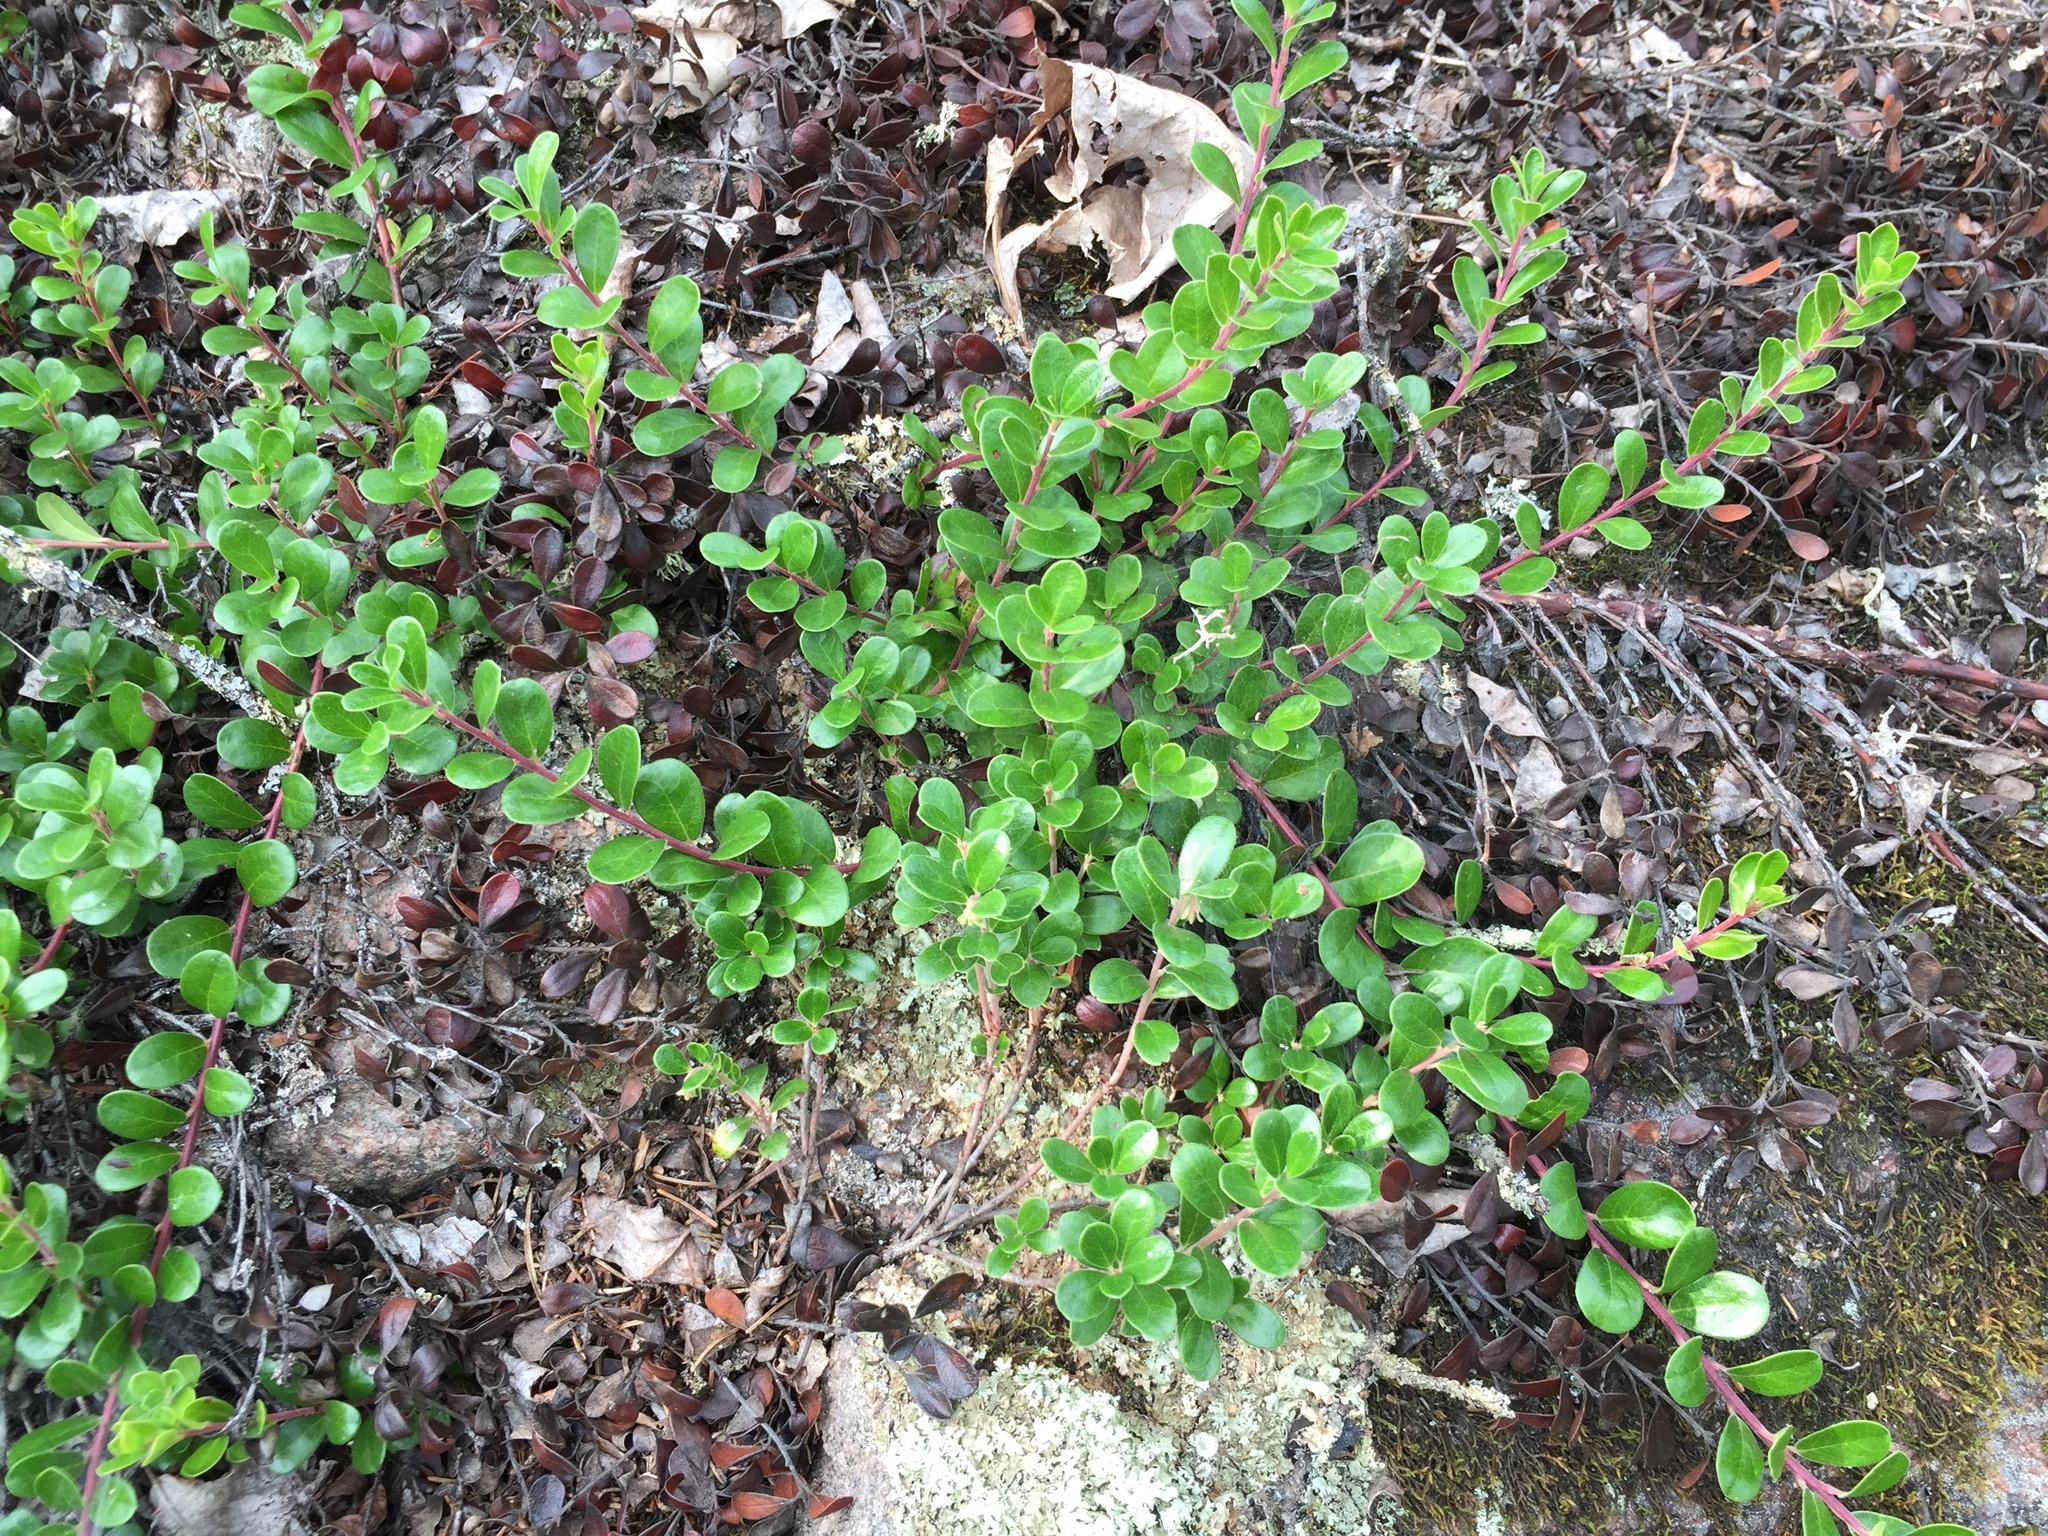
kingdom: Plantae
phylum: Tracheophyta
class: Magnoliopsida
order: Ericales
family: Ericaceae
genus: Arctostaphylos
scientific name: Arctostaphylos uva-ursi
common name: Bearberry
